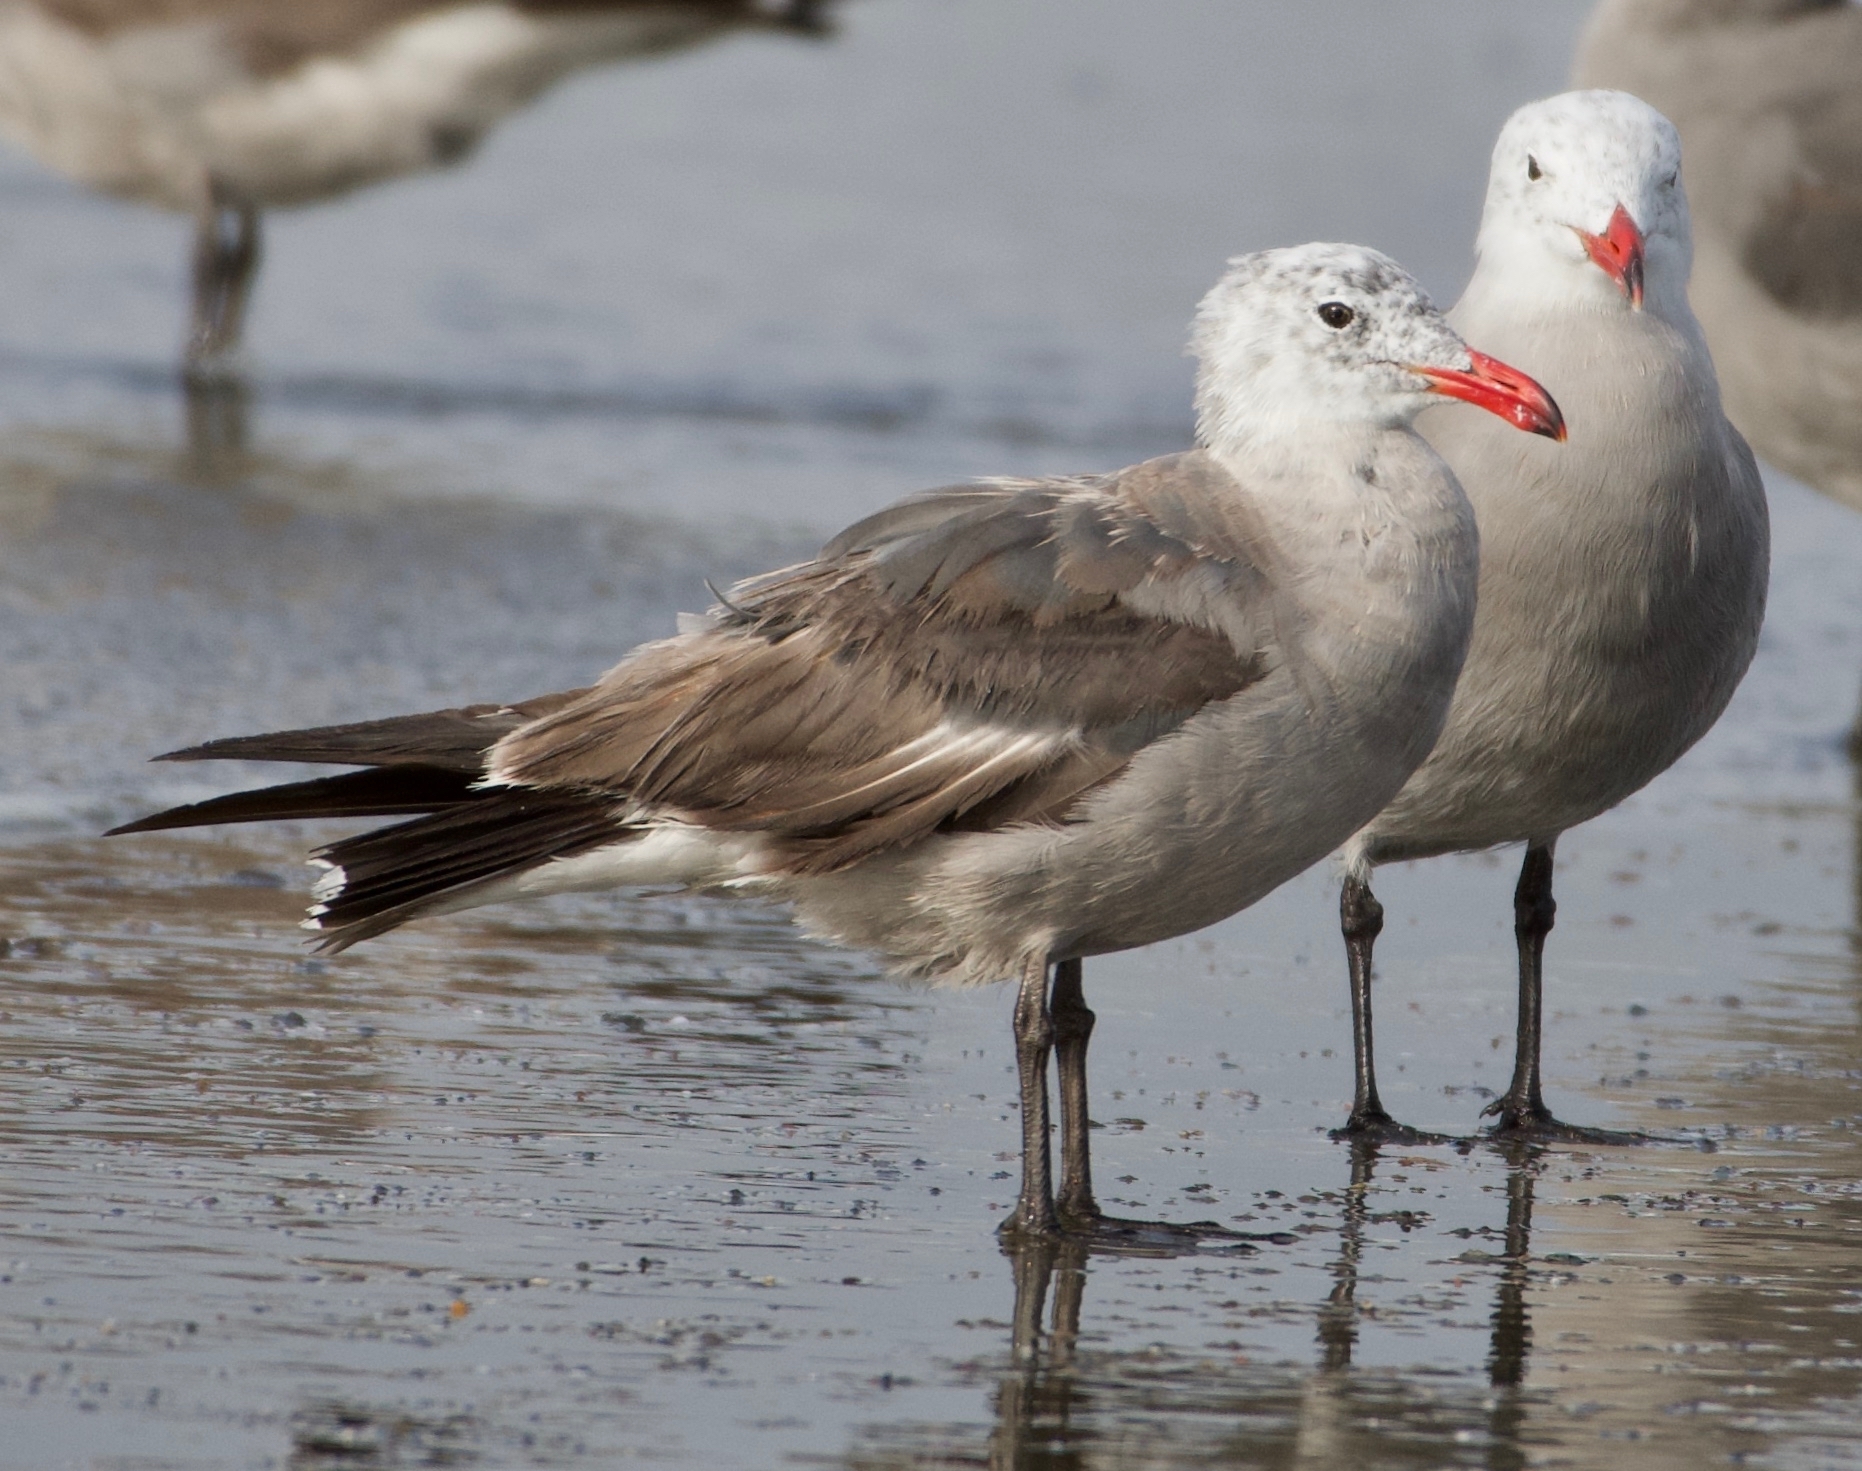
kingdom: Animalia
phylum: Chordata
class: Aves
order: Charadriiformes
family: Laridae
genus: Larus
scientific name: Larus heermanni
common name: Heermann's gull
